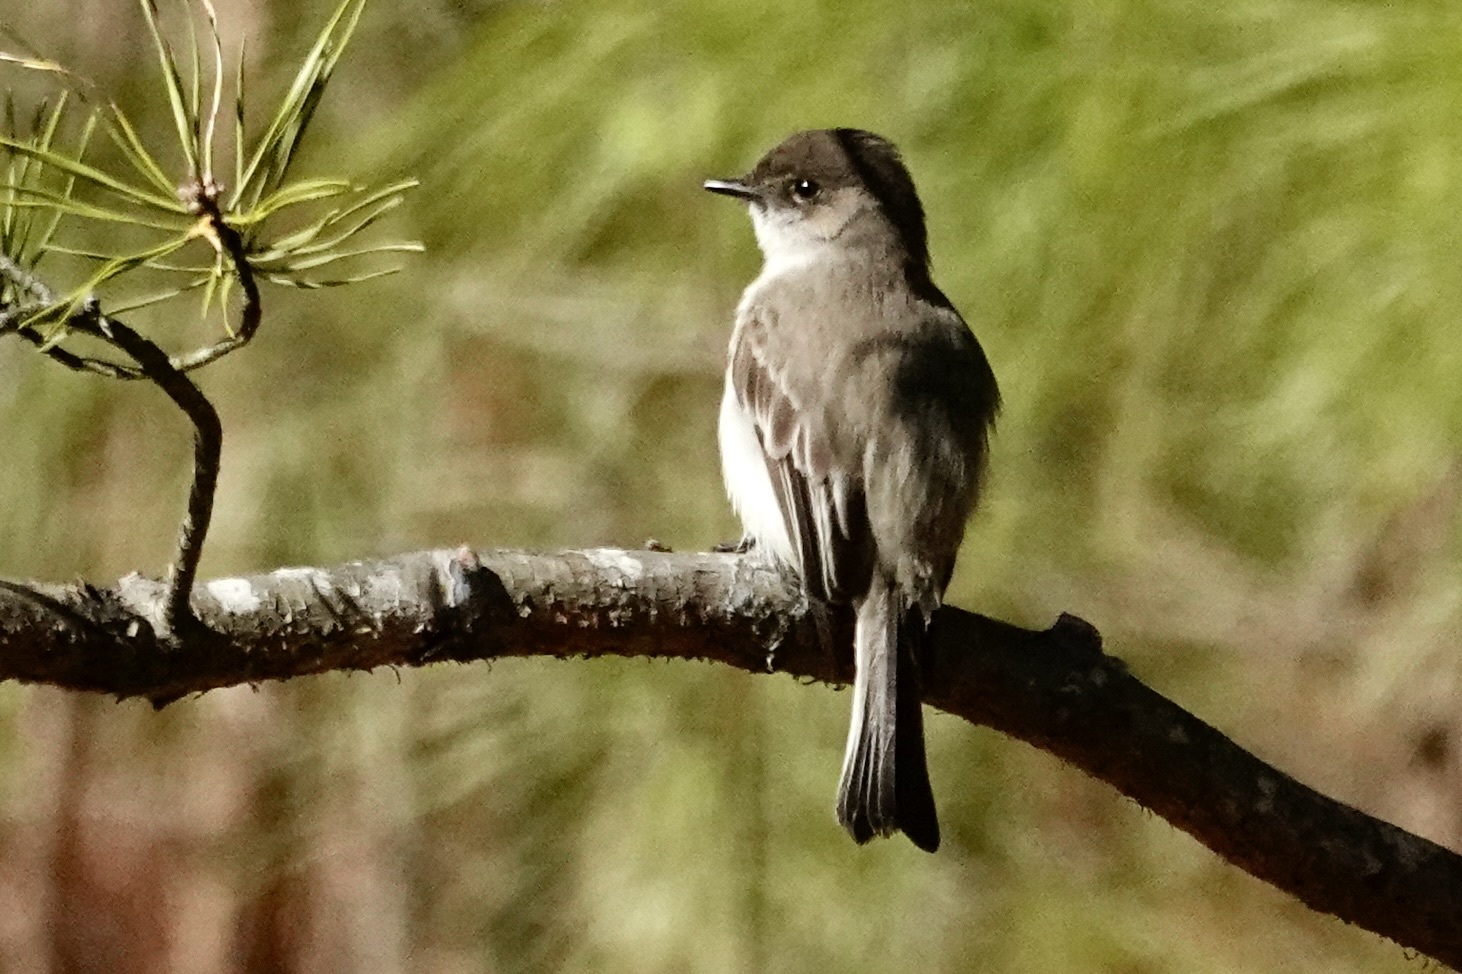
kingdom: Animalia
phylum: Chordata
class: Aves
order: Passeriformes
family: Tyrannidae
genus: Sayornis
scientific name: Sayornis phoebe
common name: Eastern phoebe
